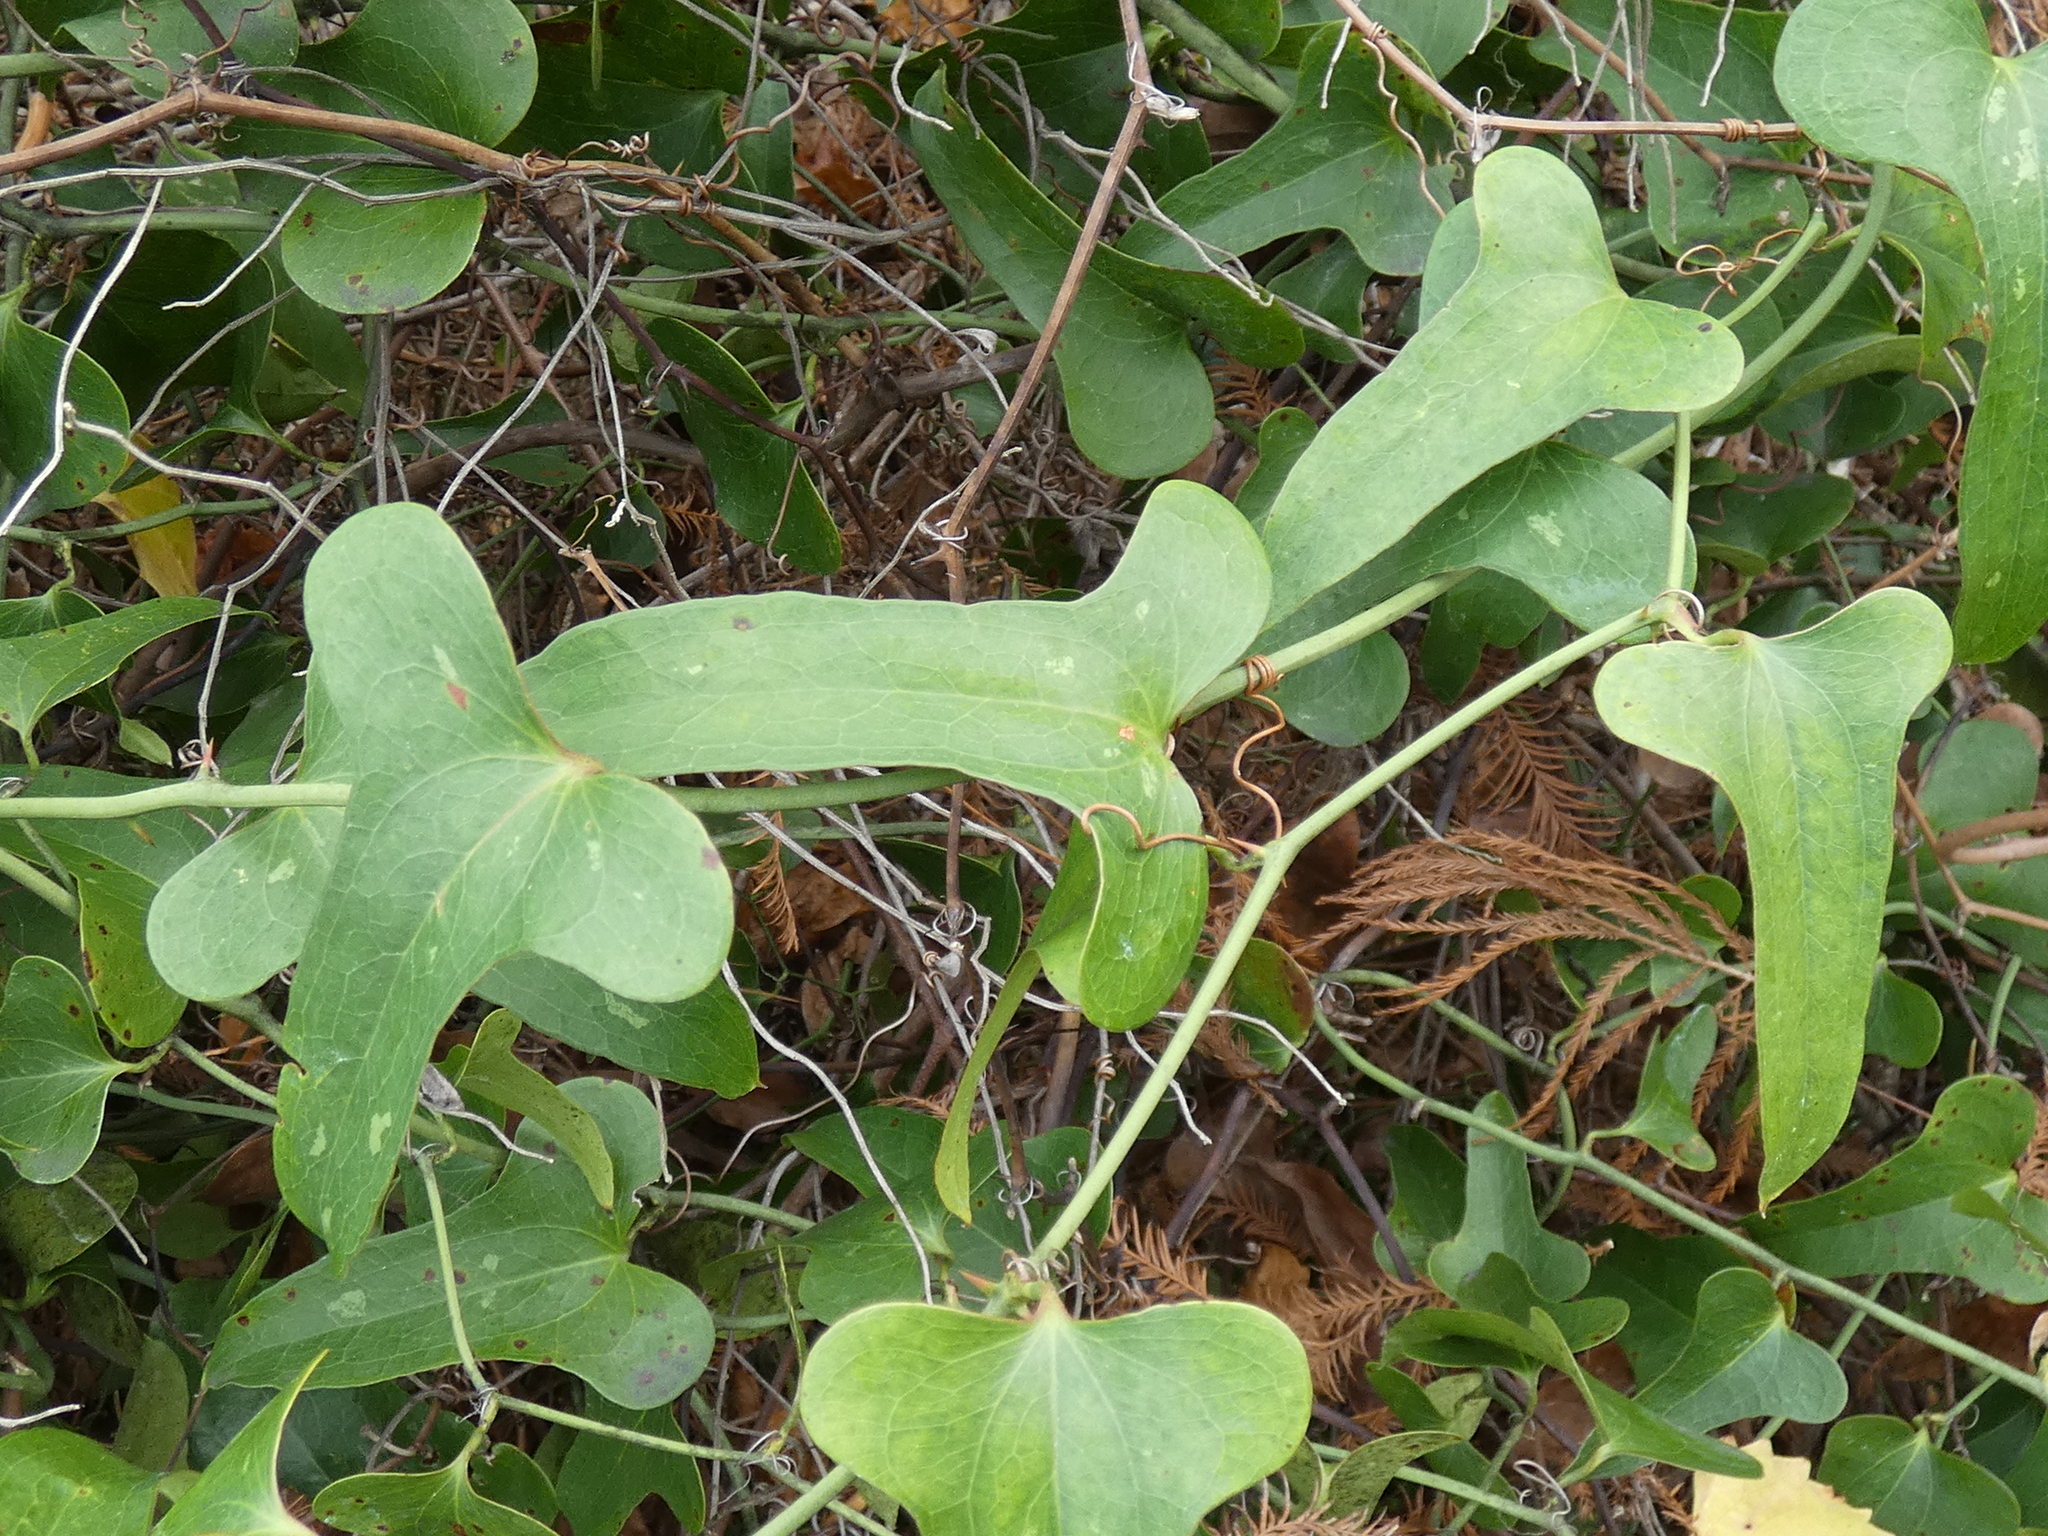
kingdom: Plantae
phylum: Tracheophyta
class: Liliopsida
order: Liliales
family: Smilacaceae
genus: Smilax
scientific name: Smilax bona-nox
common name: Catbrier
